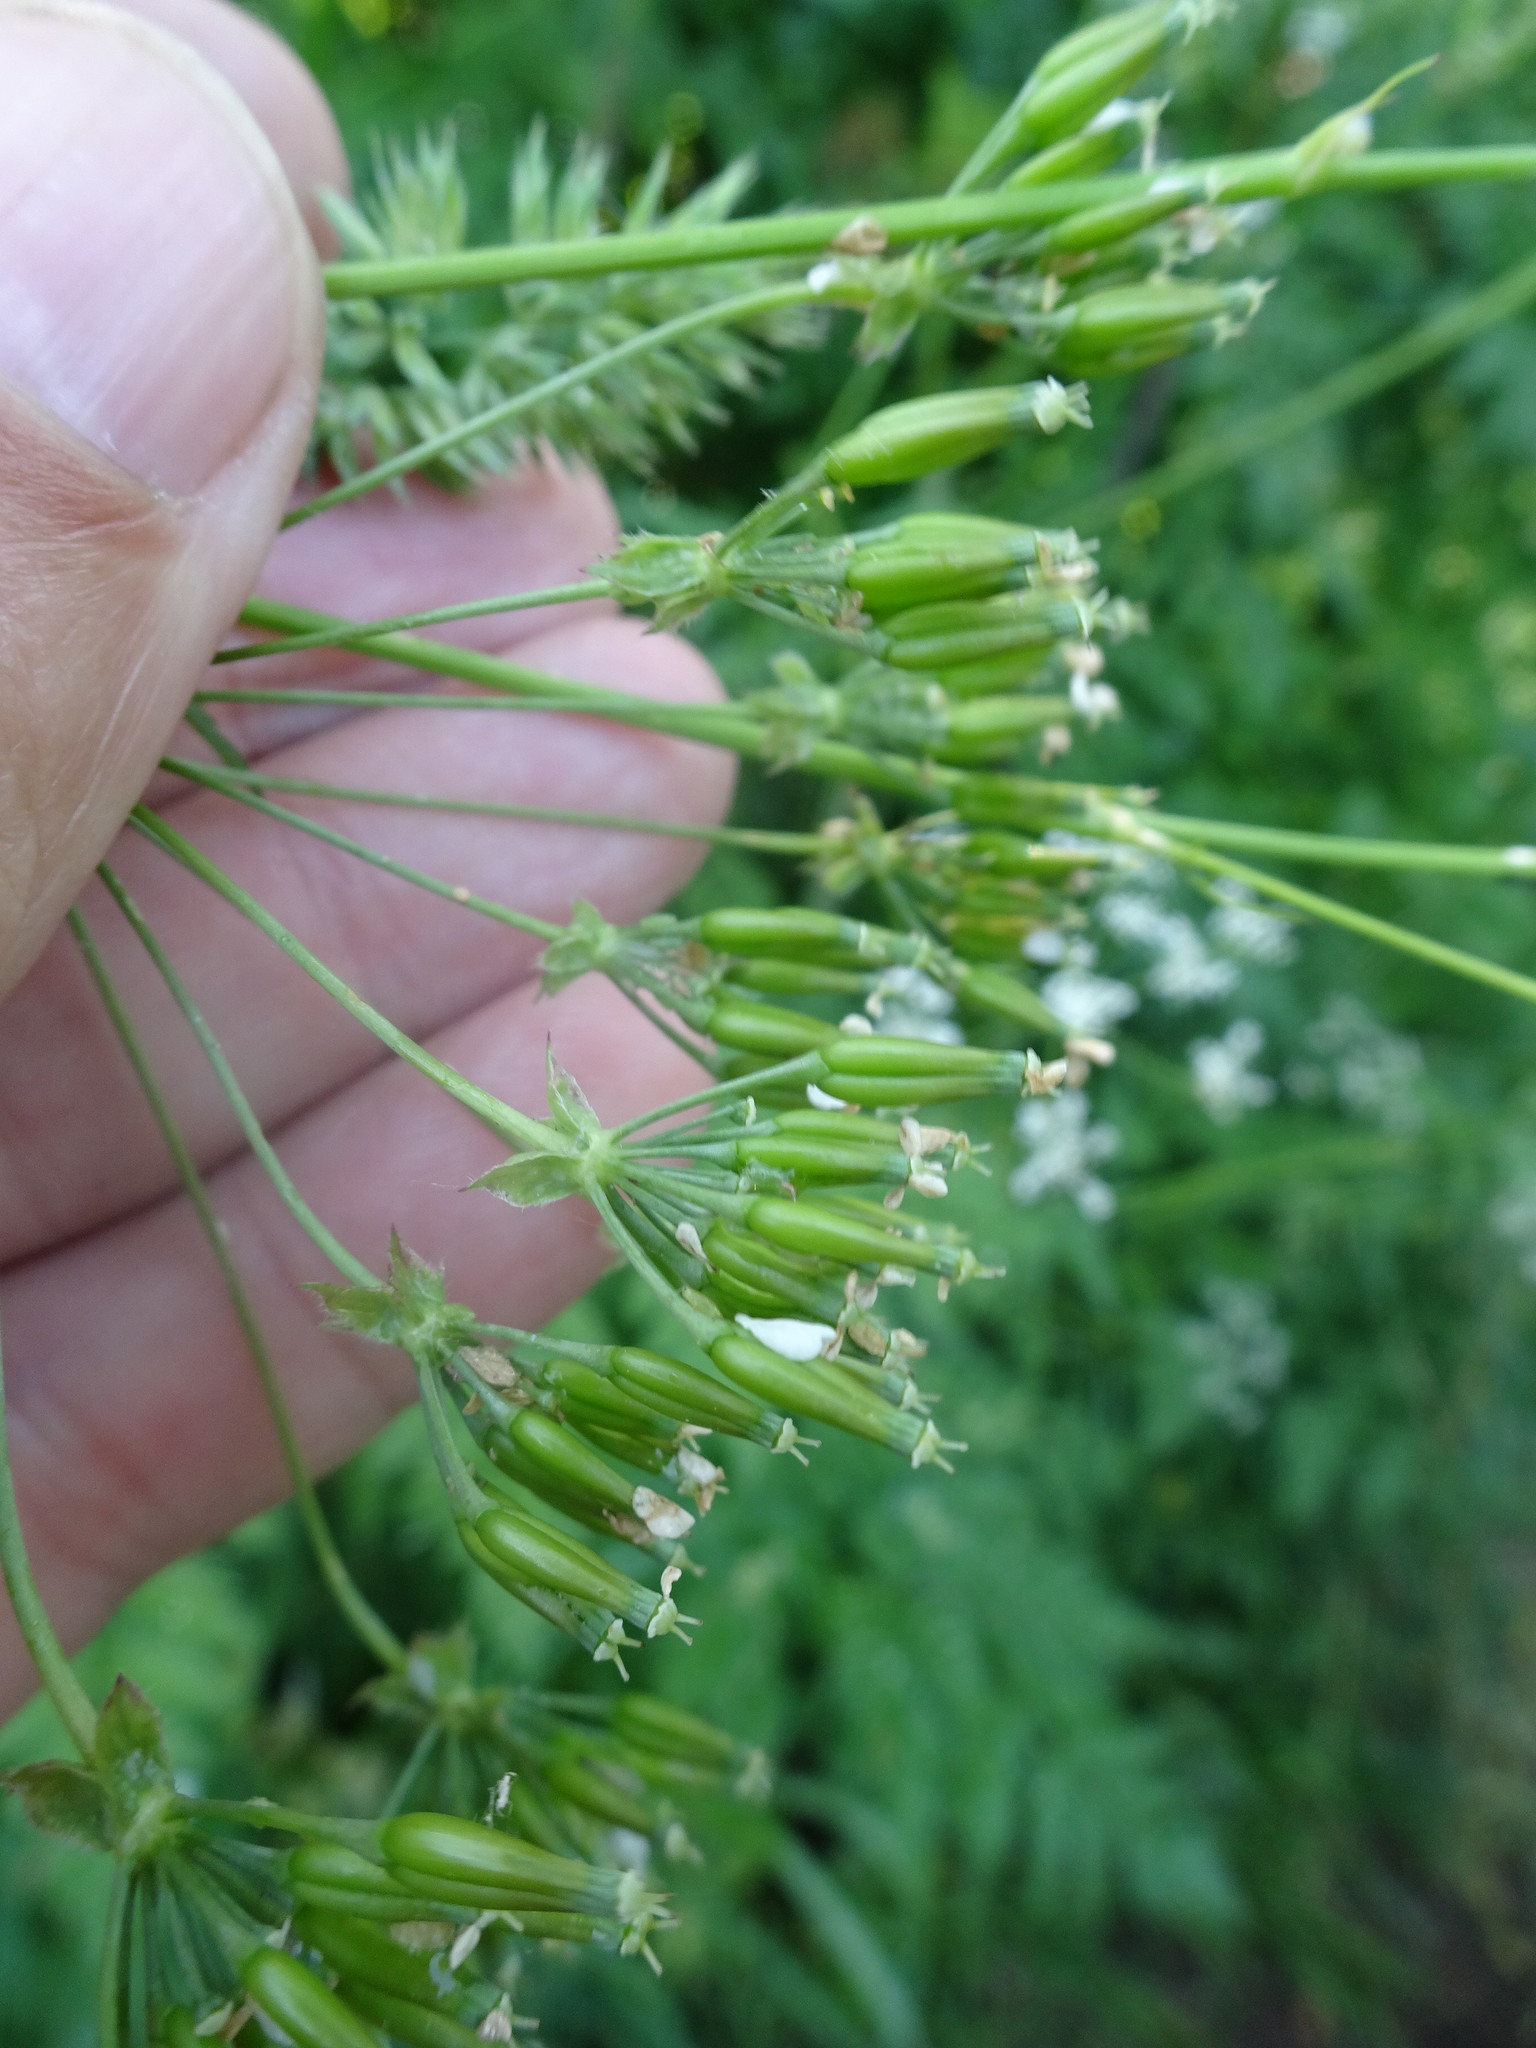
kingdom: Plantae
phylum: Tracheophyta
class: Magnoliopsida
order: Apiales
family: Apiaceae
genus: Chaerophyllum
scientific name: Chaerophyllum bulbosum
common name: Bulbous chervil
